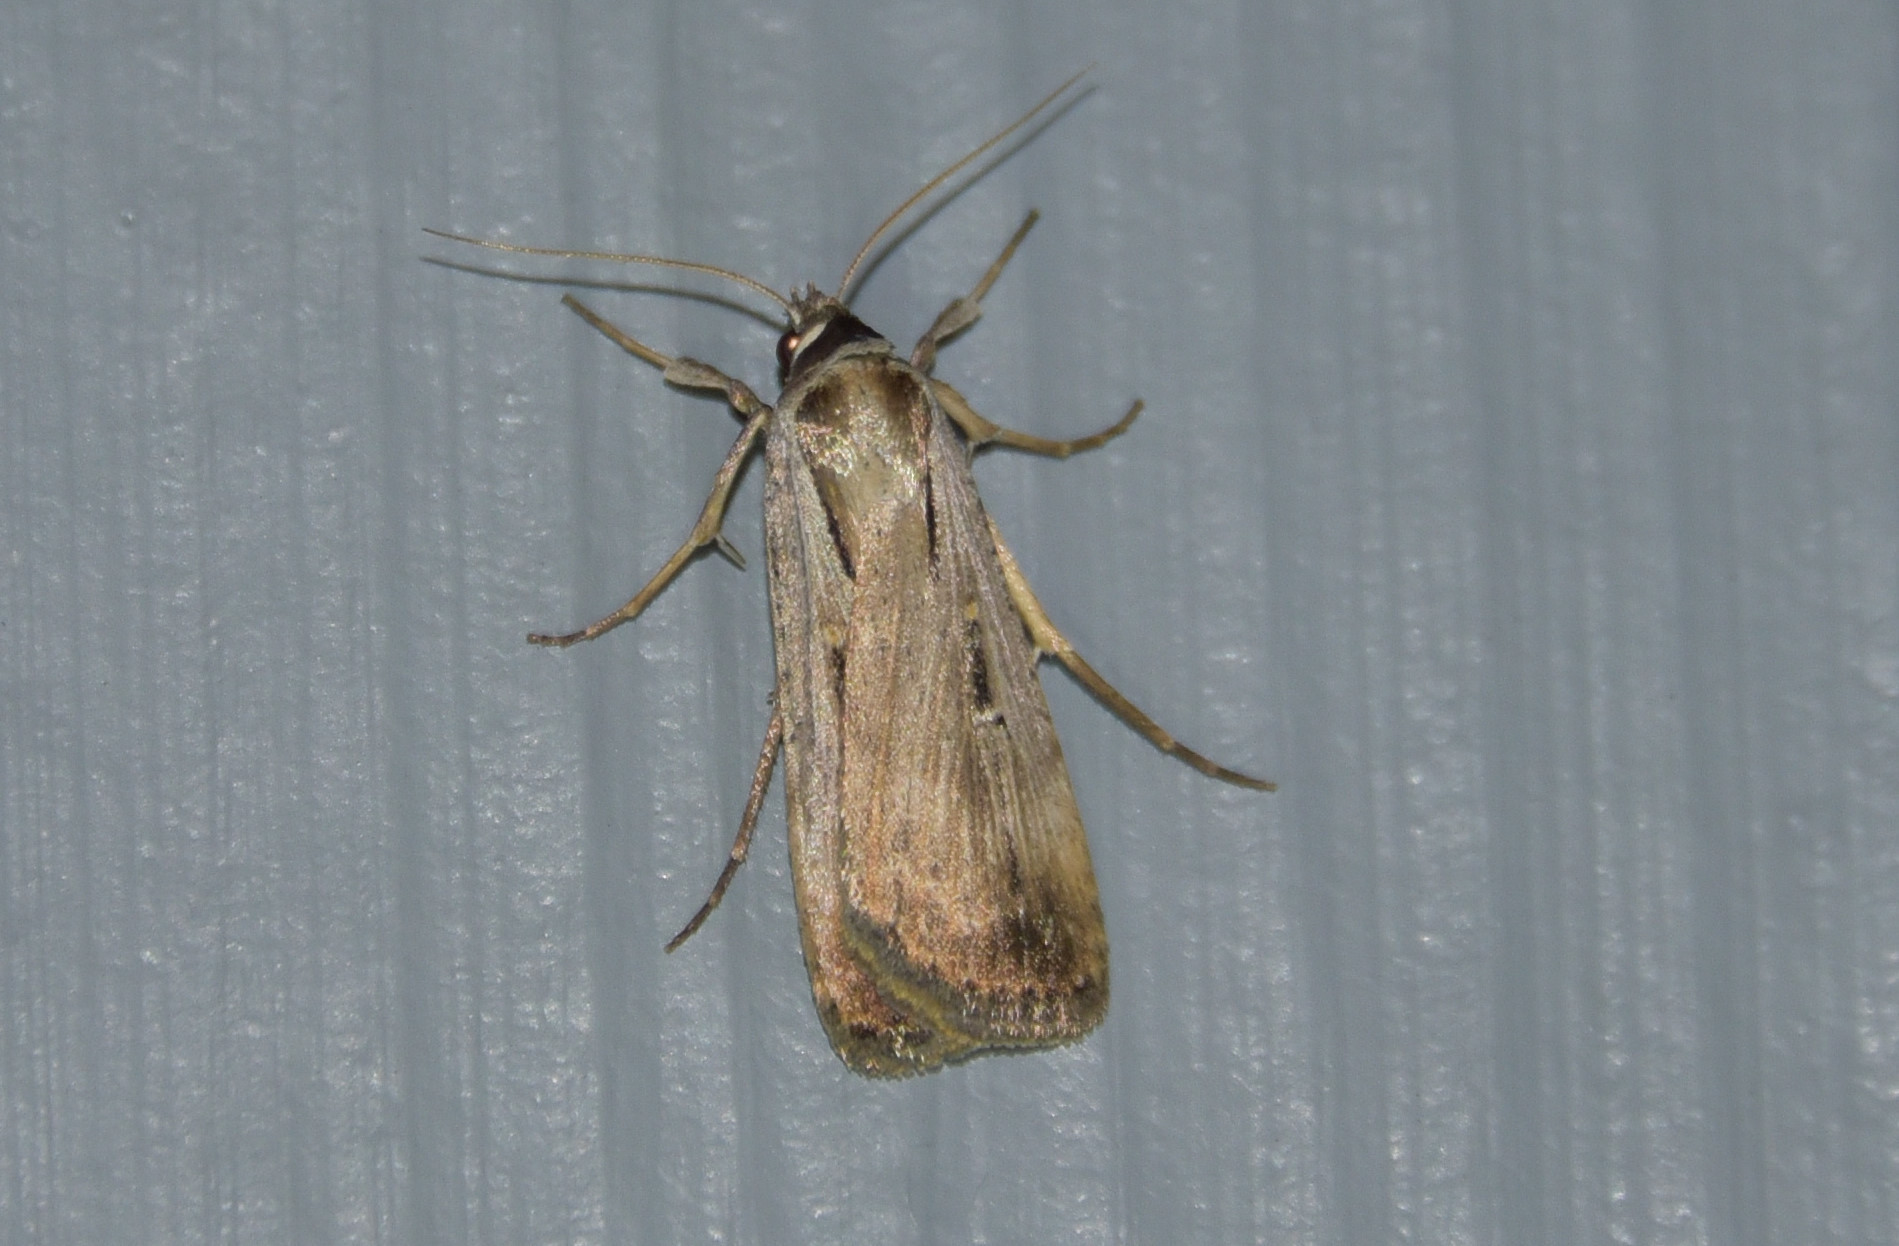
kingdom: Animalia
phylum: Arthropoda
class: Insecta
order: Lepidoptera
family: Noctuidae
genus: Tathorhynchus
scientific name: Tathorhynchus exsiccata
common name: Levant blackneck moth
